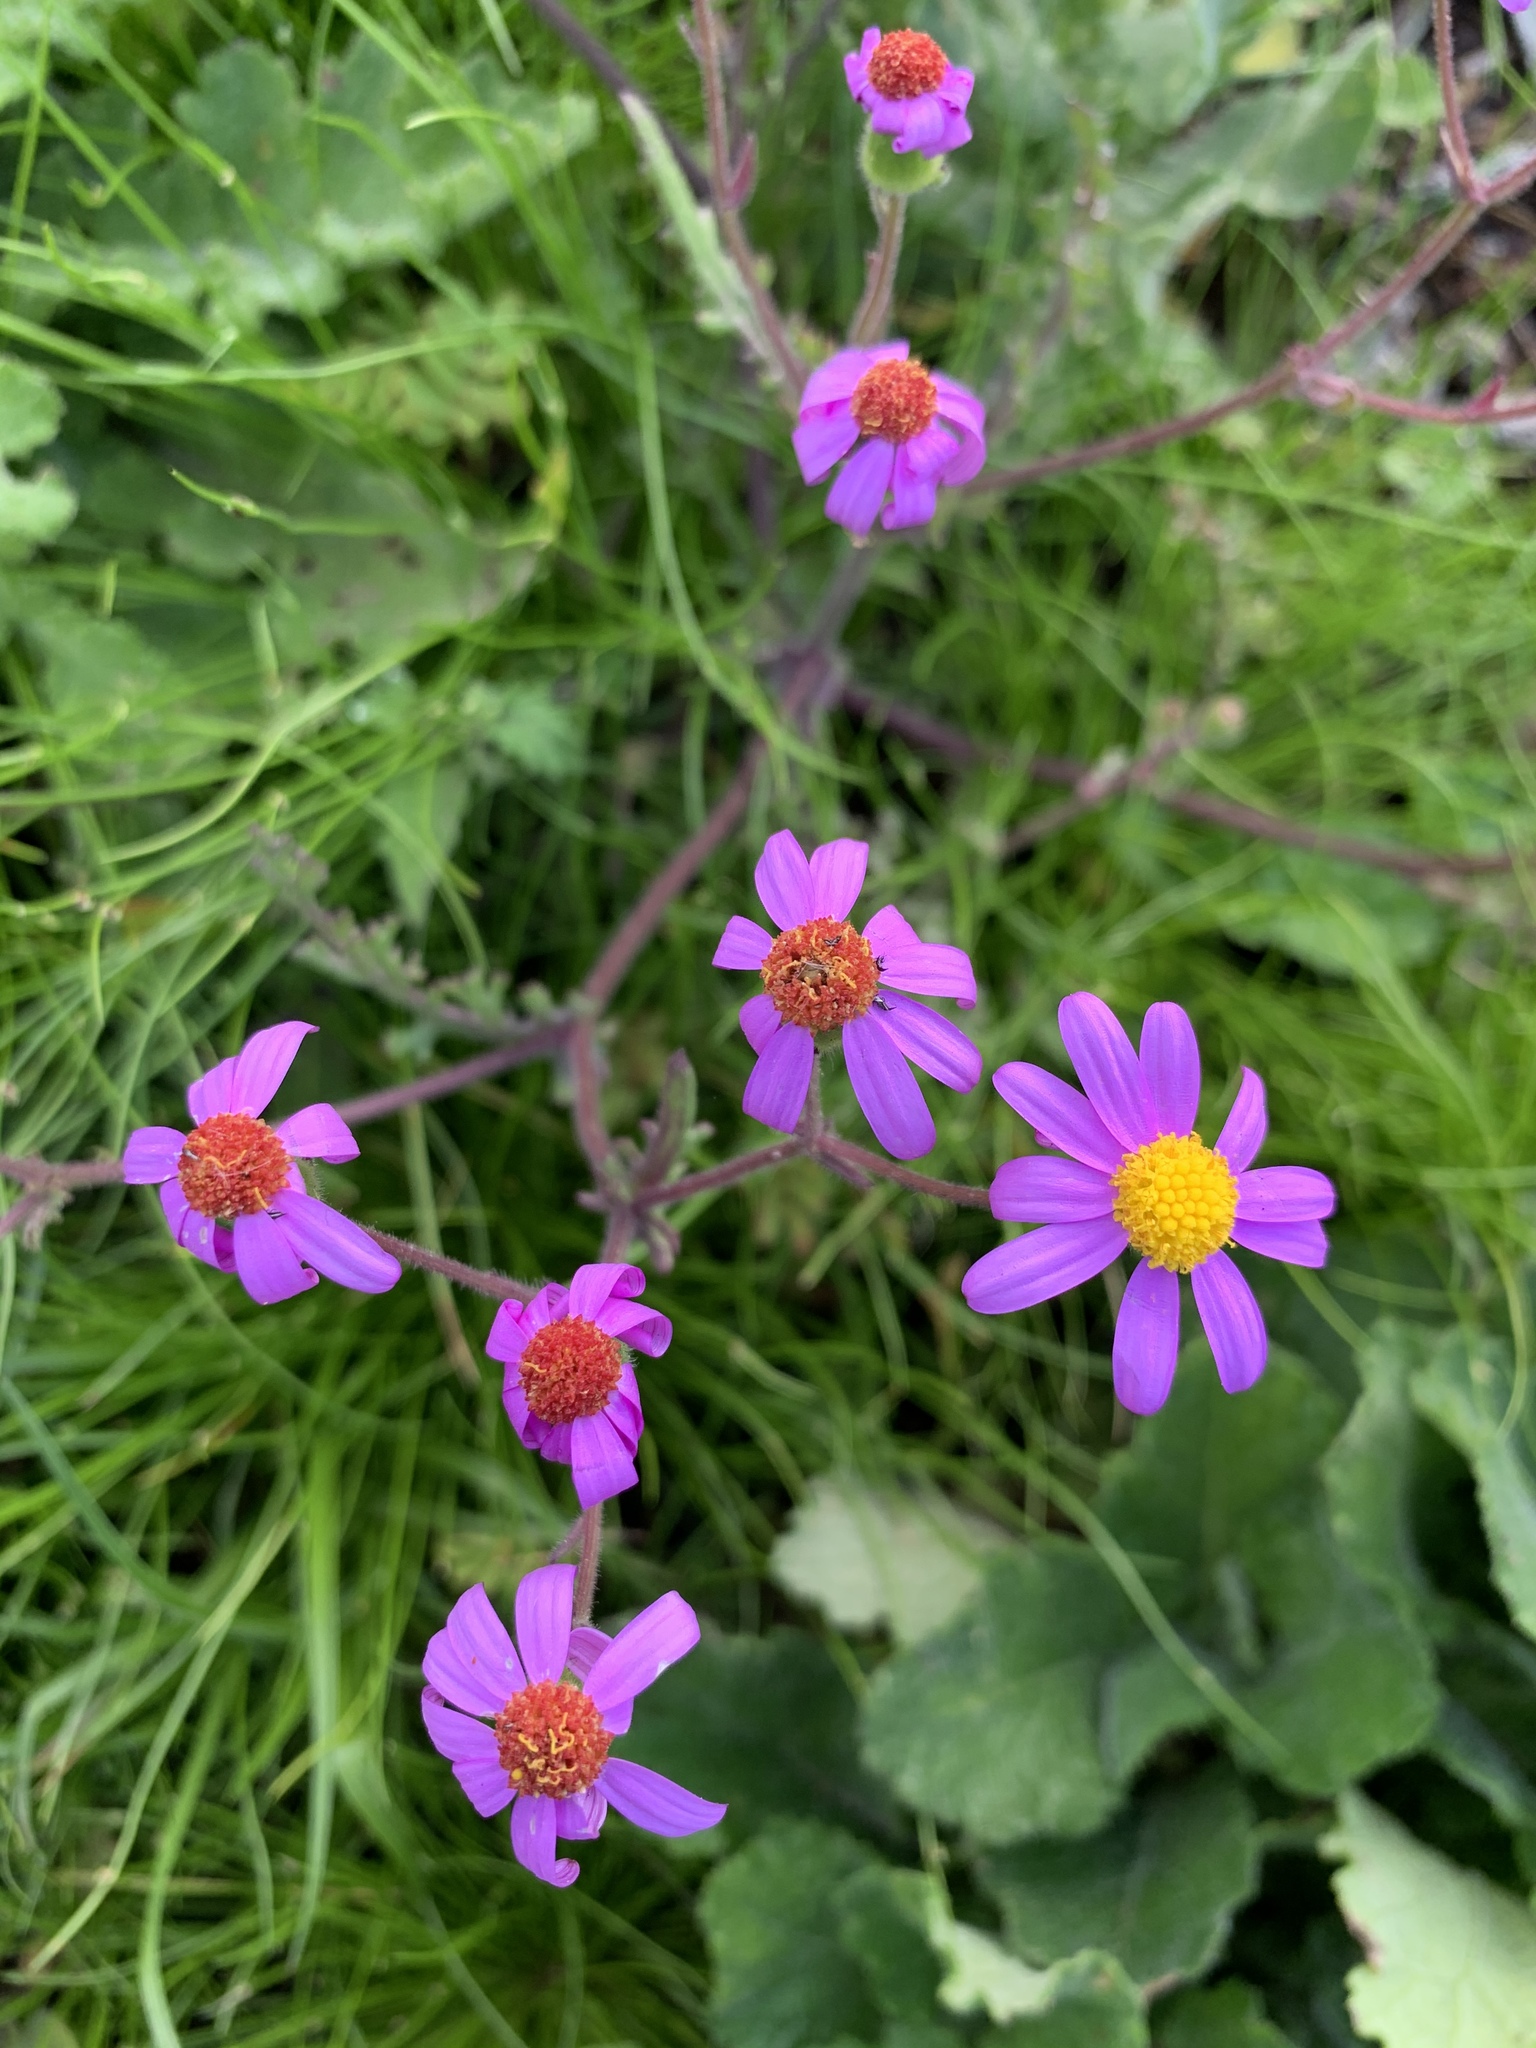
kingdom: Plantae
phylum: Tracheophyta
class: Magnoliopsida
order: Asterales
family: Asteraceae
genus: Senecio
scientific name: Senecio elegans
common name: Purple groundsel
